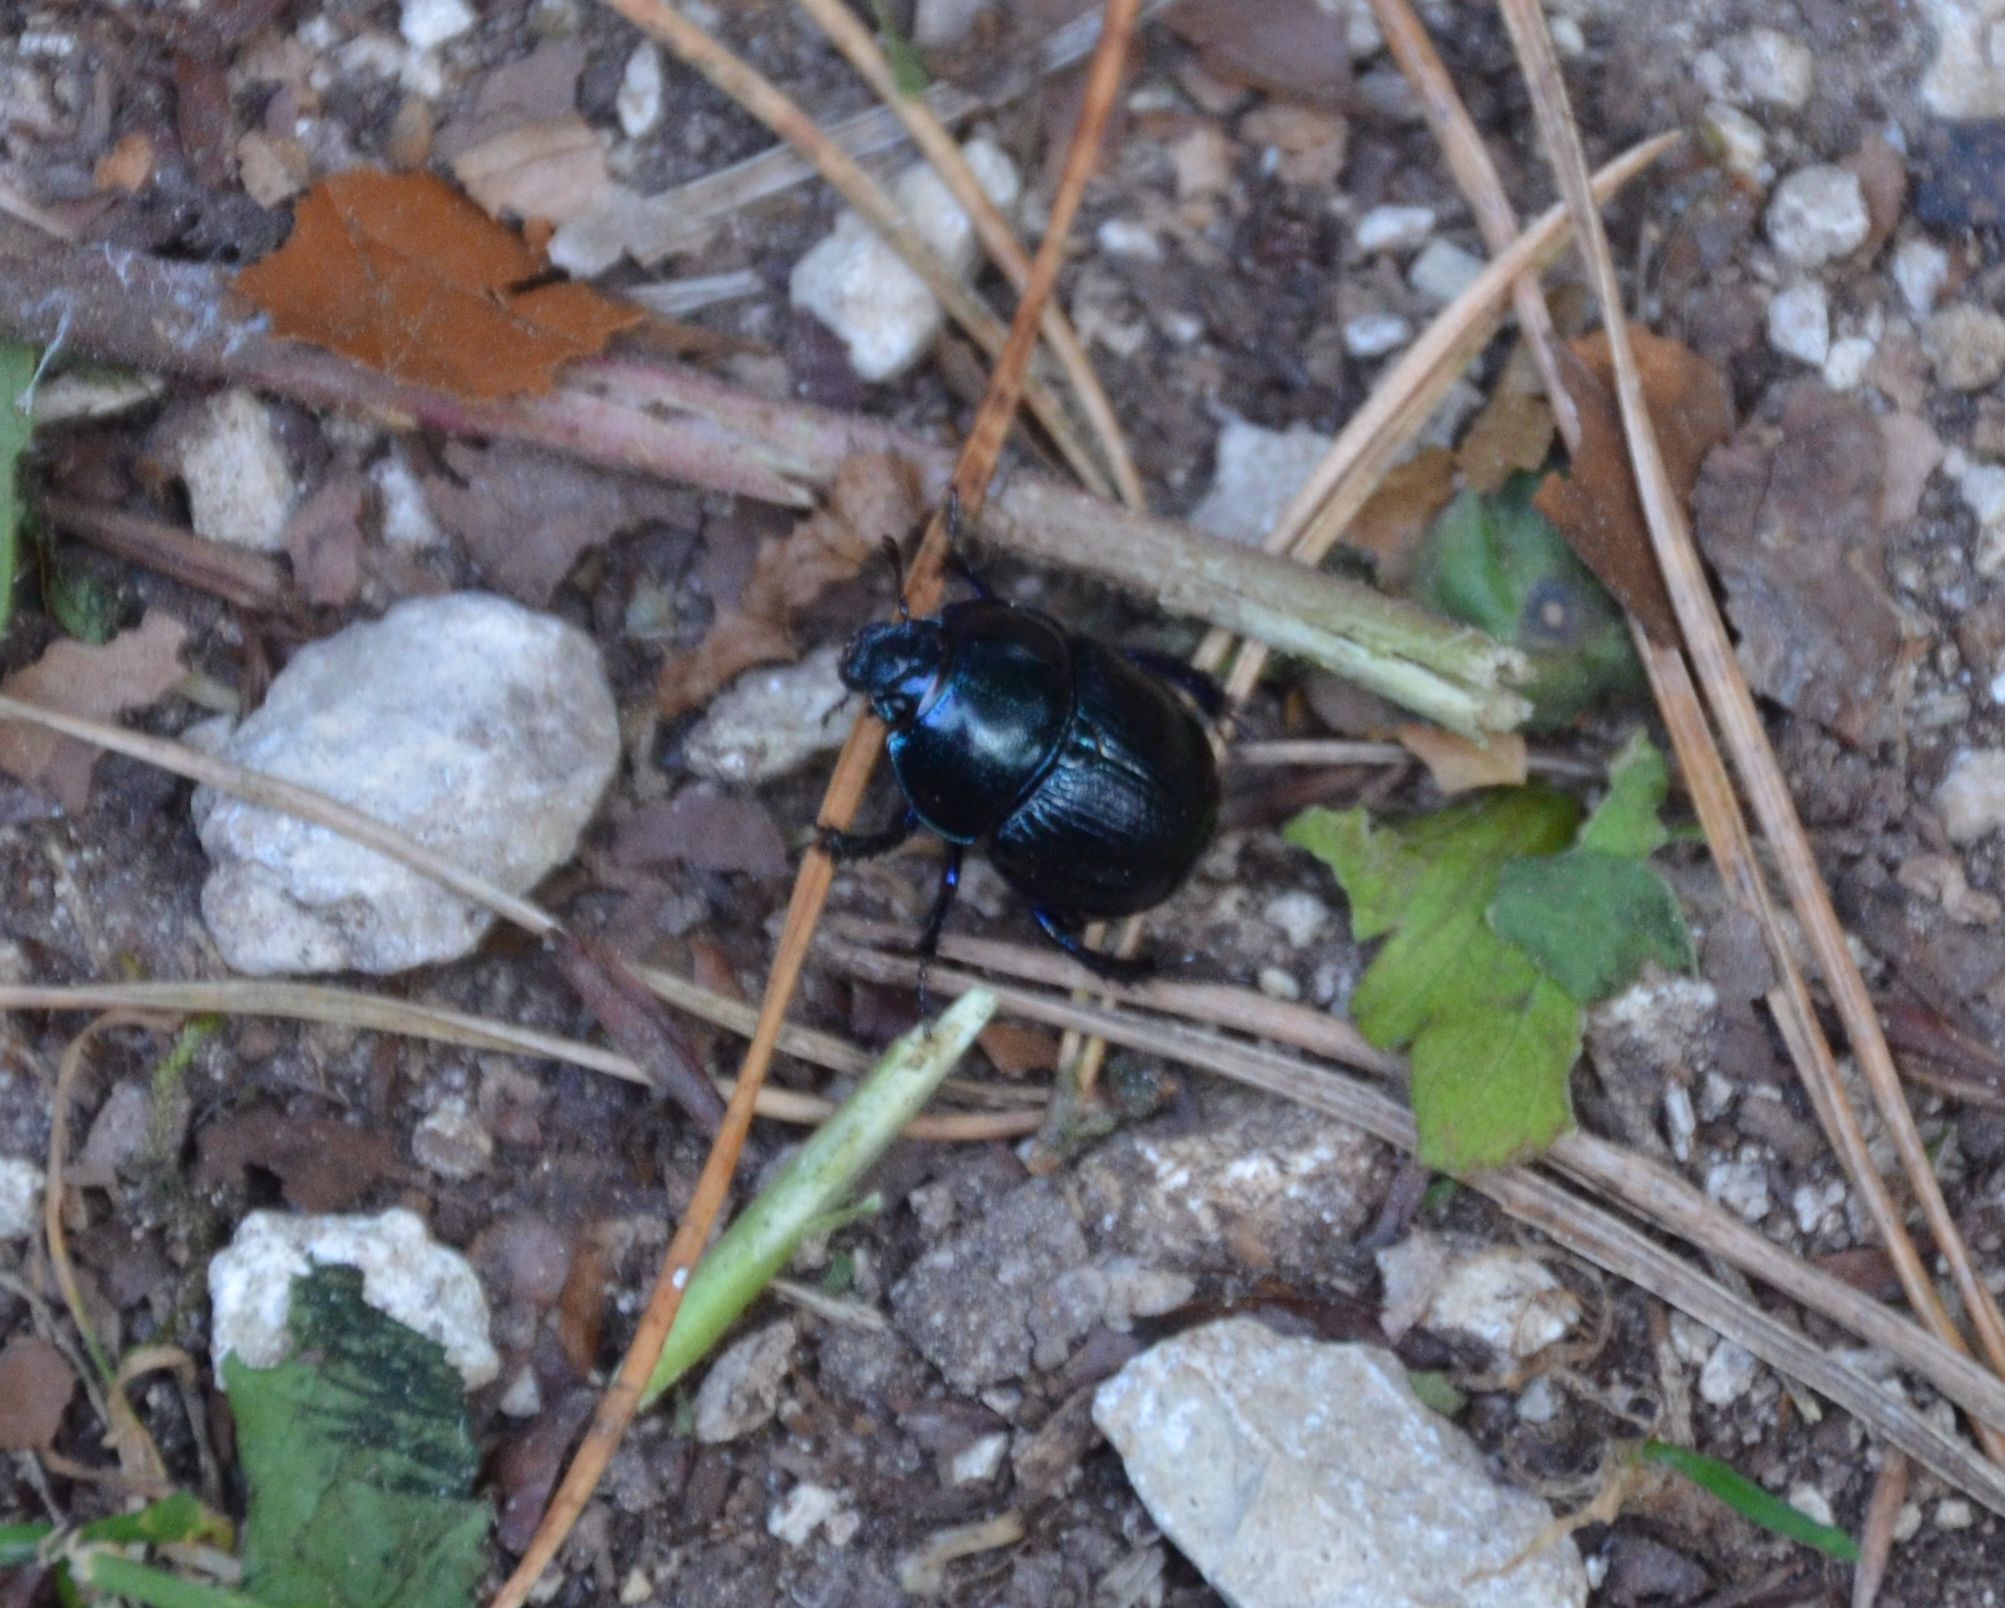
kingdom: Animalia
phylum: Arthropoda
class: Insecta
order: Coleoptera
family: Geotrupidae
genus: Anoplotrupes
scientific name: Anoplotrupes stercorosus
